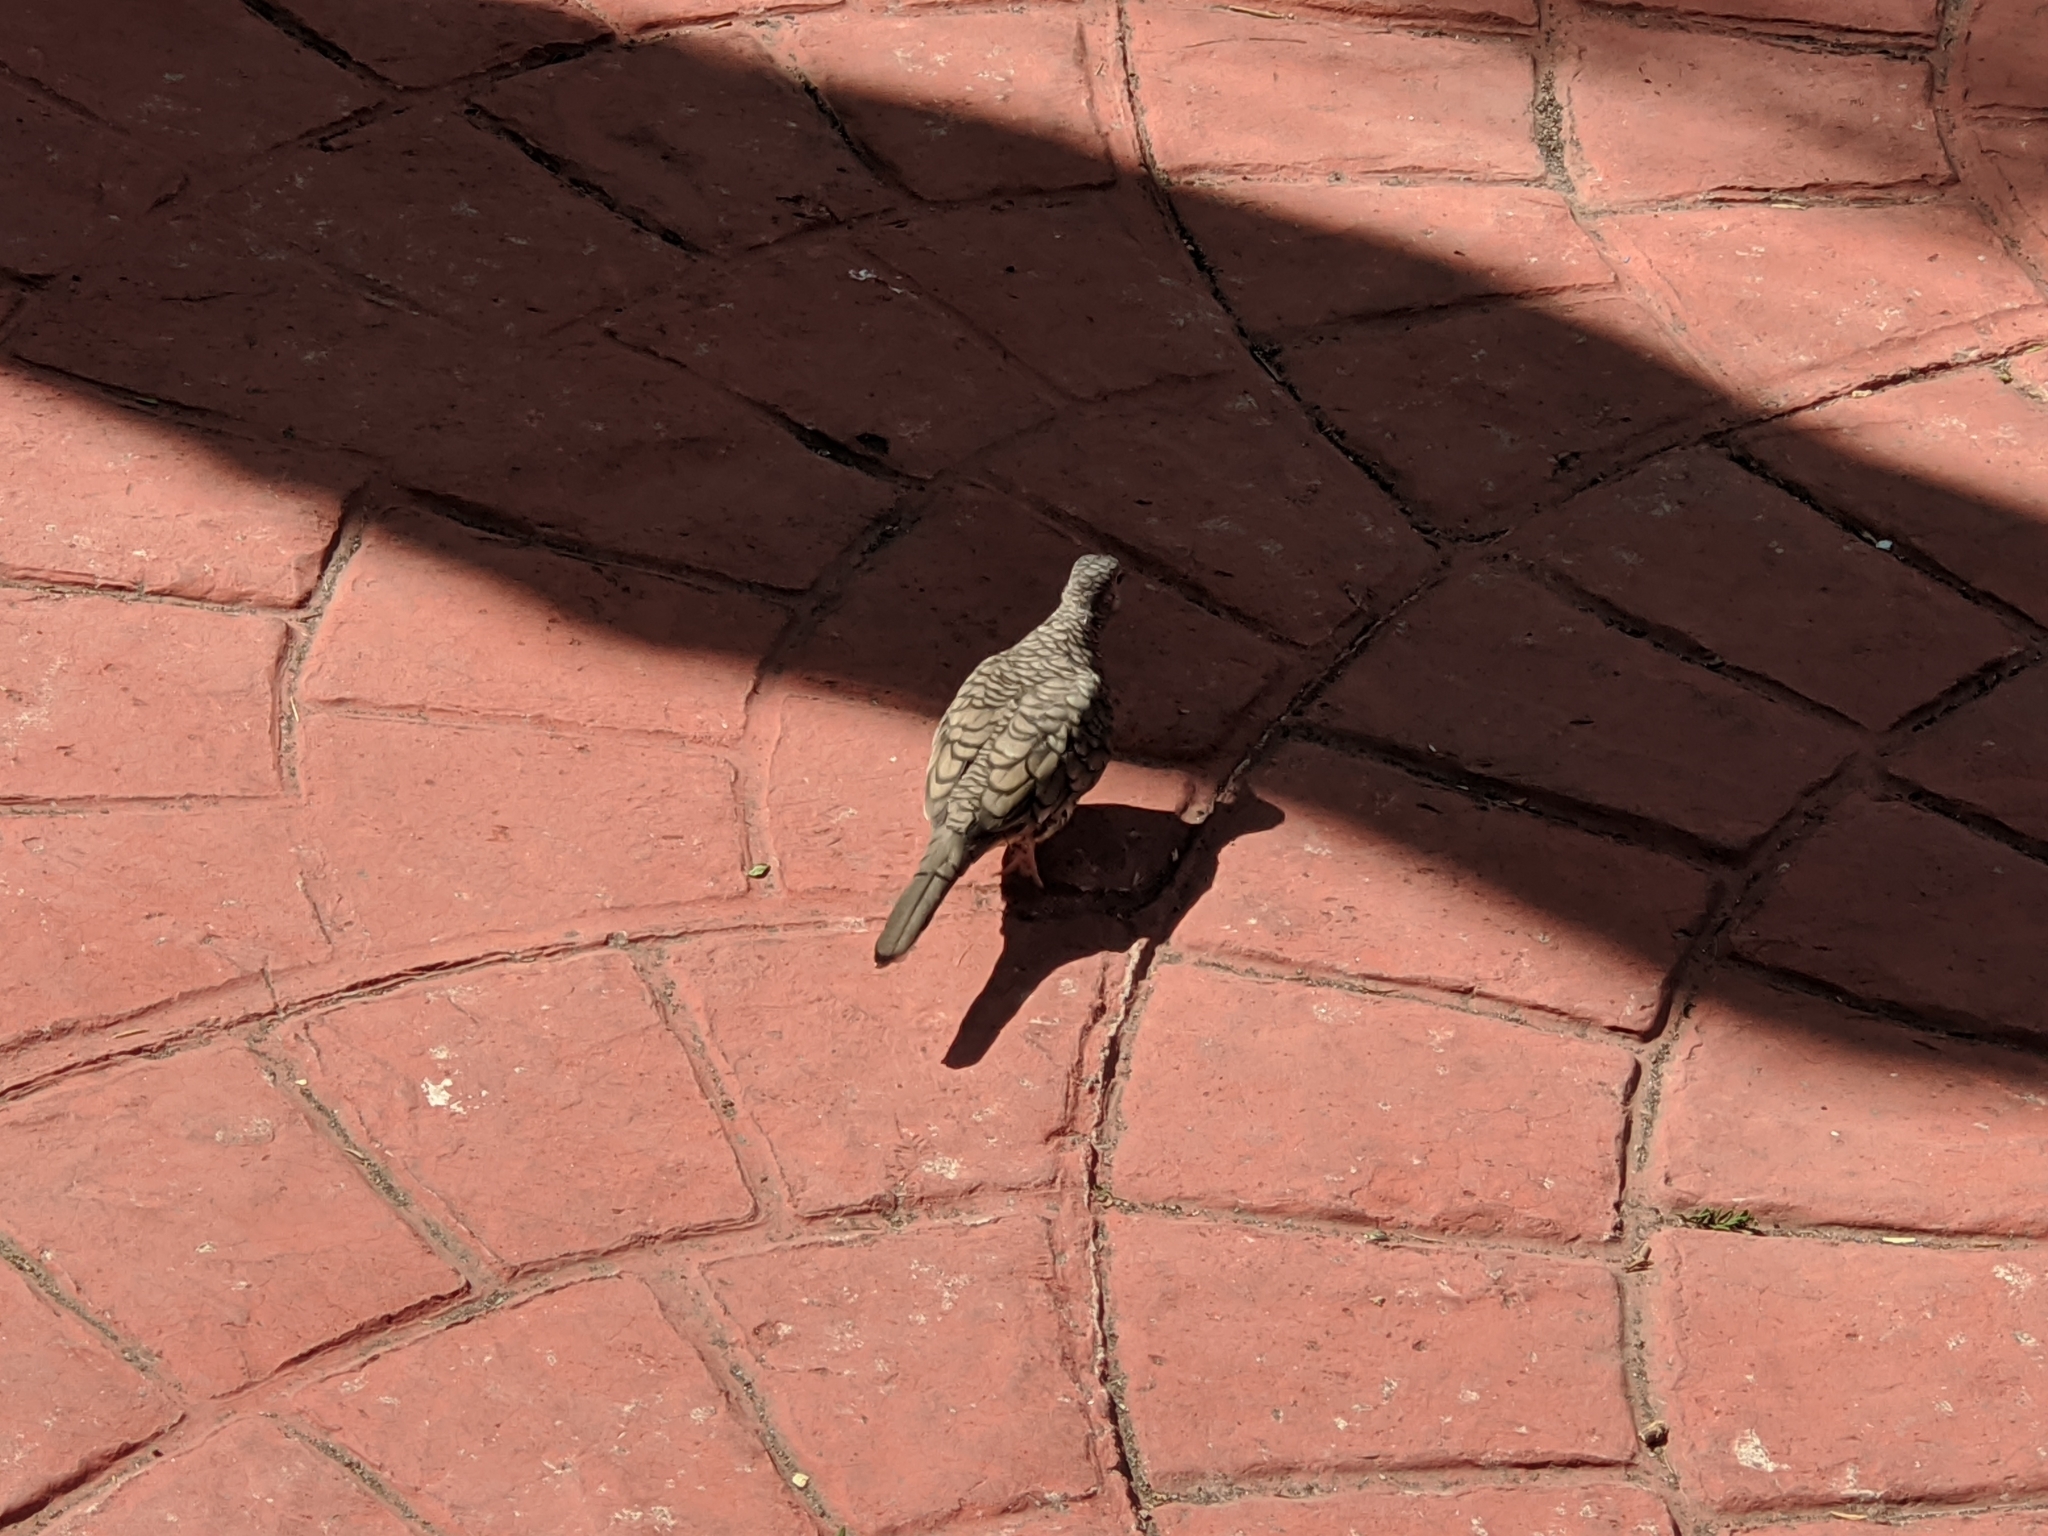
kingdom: Animalia
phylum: Chordata
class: Aves
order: Columbiformes
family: Columbidae
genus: Columbina
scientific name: Columbina inca
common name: Inca dove
